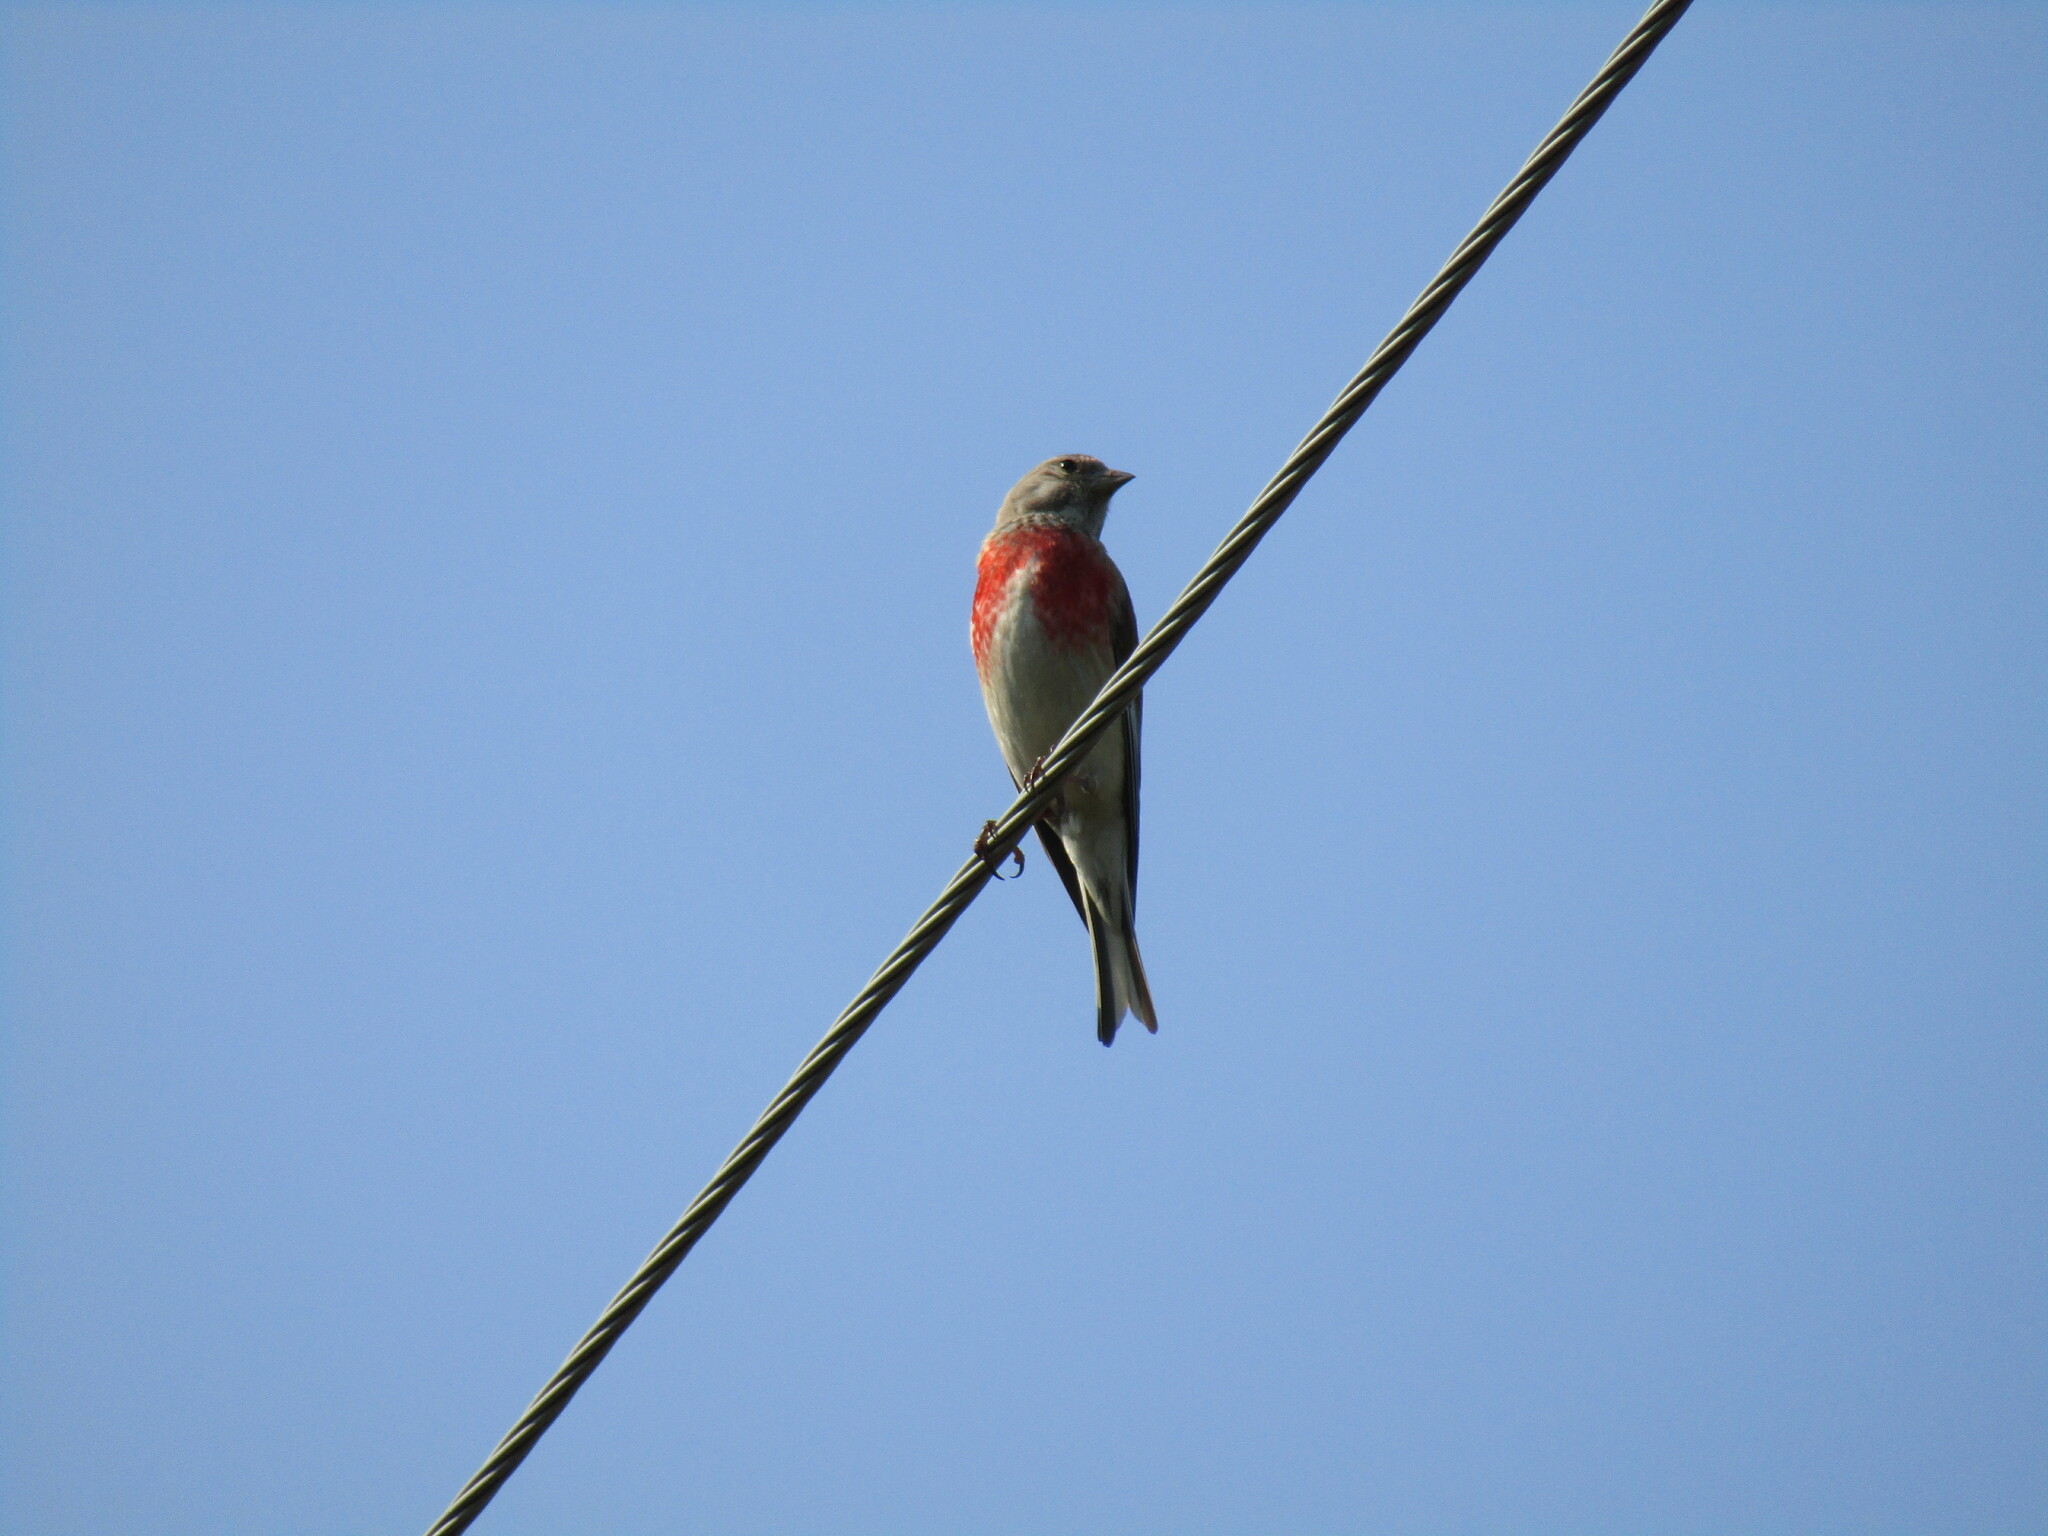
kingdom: Animalia
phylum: Chordata
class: Aves
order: Passeriformes
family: Fringillidae
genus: Linaria
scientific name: Linaria cannabina
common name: Common linnet
